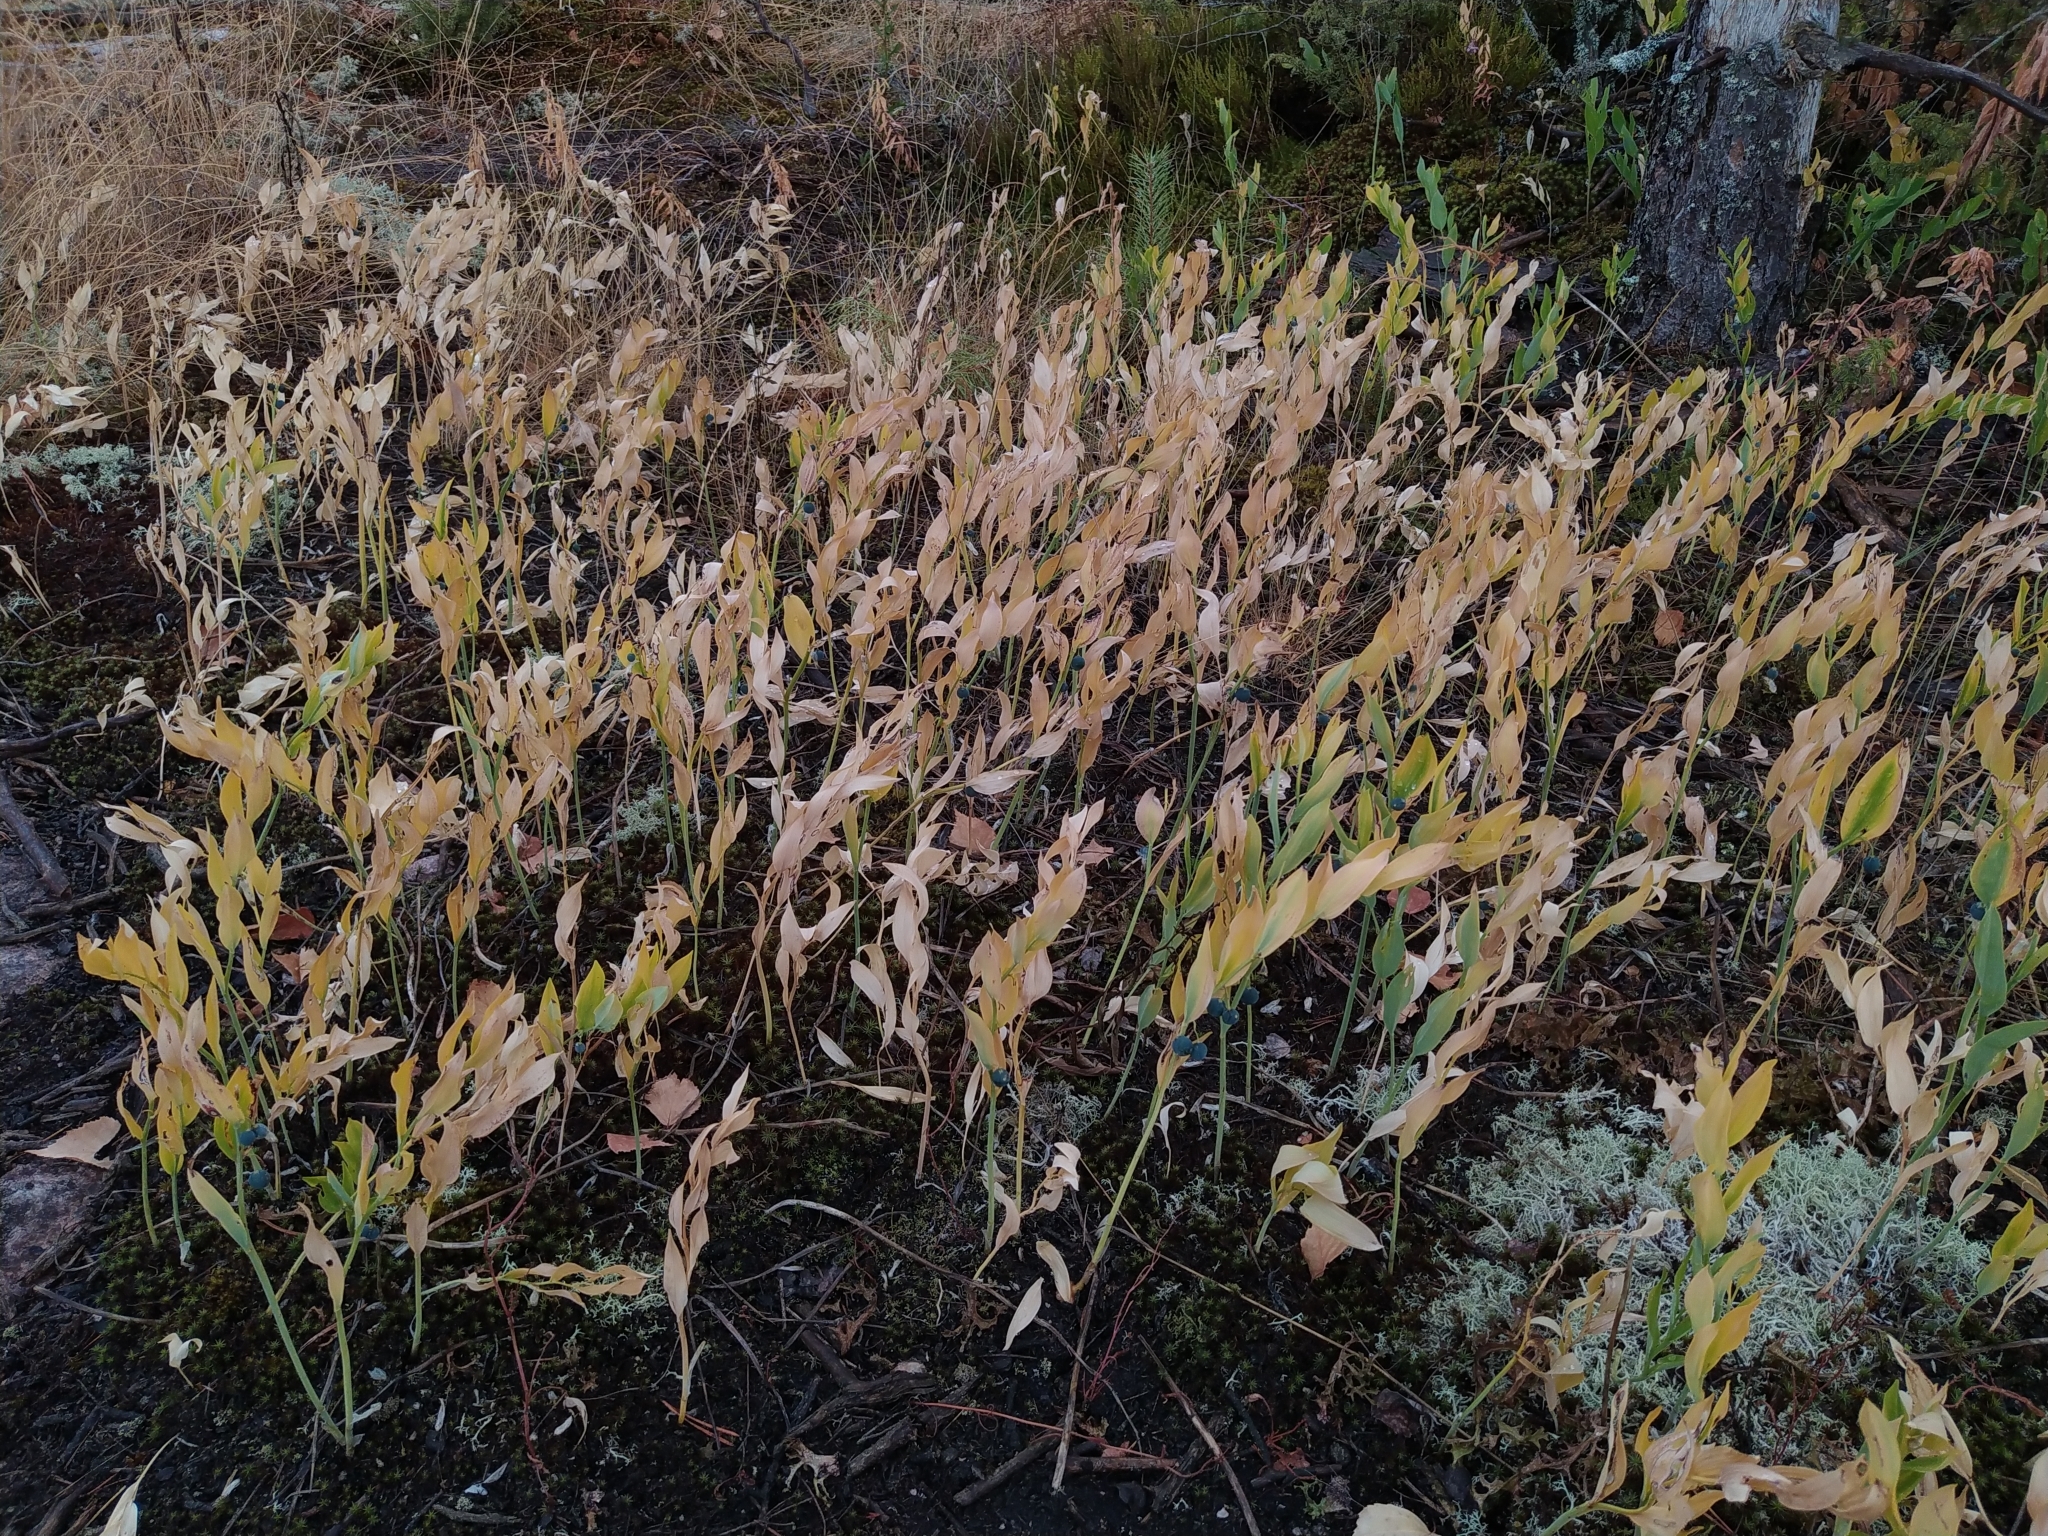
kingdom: Plantae
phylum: Tracheophyta
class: Liliopsida
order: Asparagales
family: Asparagaceae
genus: Polygonatum
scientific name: Polygonatum odoratum
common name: Angular solomon's-seal
